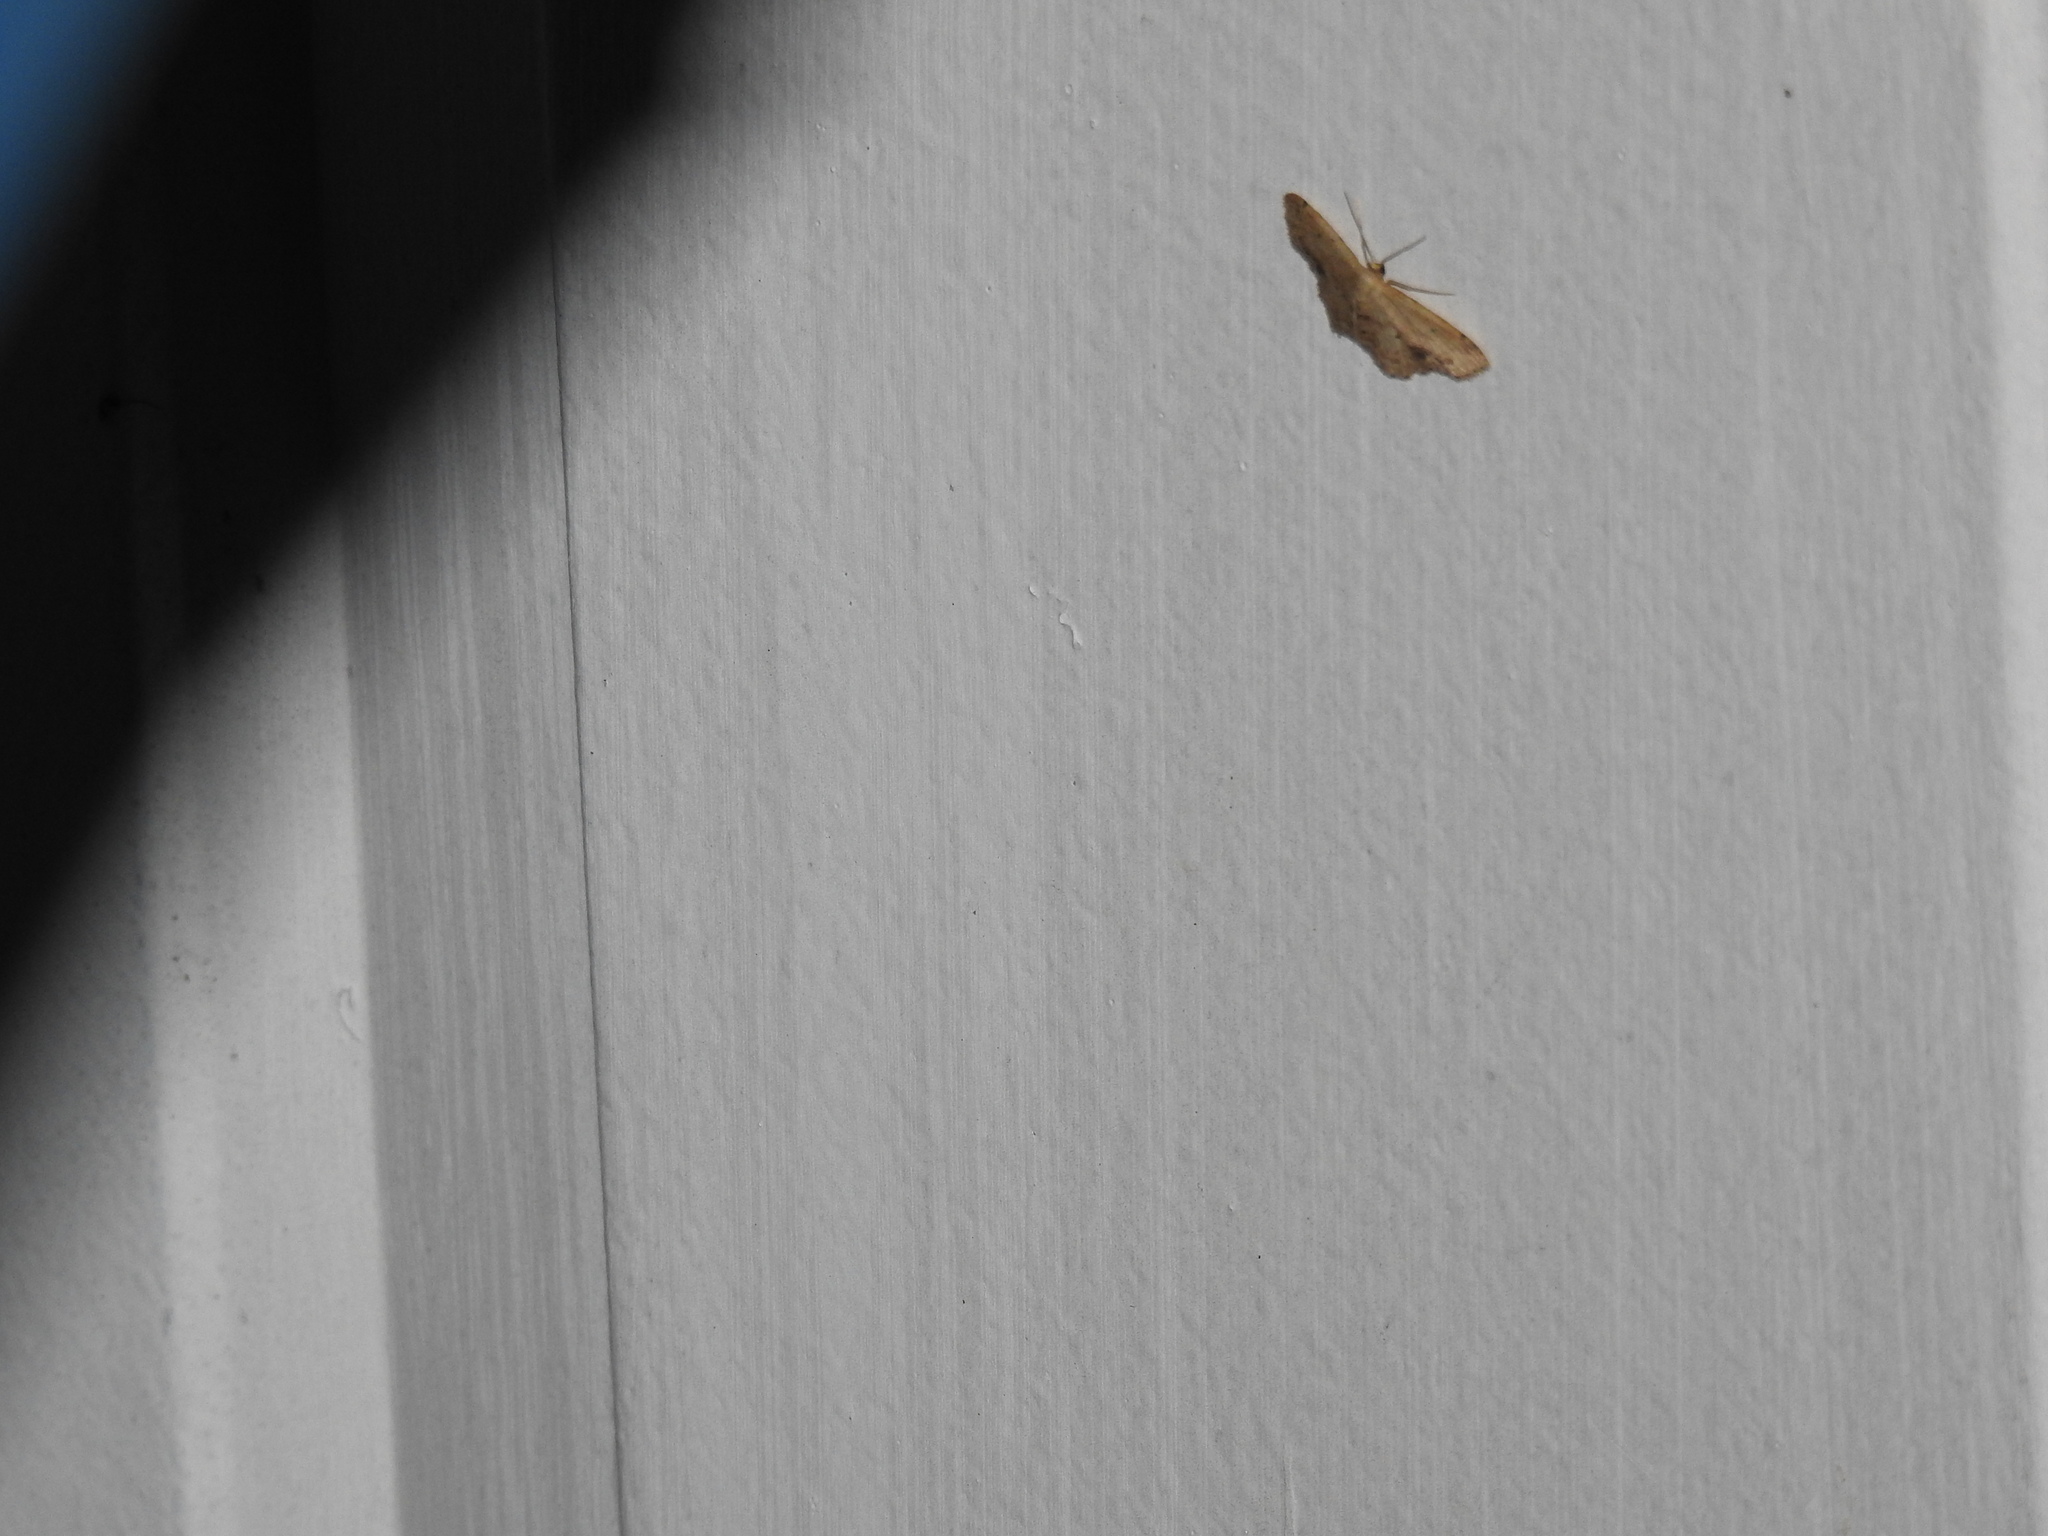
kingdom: Animalia
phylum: Arthropoda
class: Insecta
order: Lepidoptera
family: Geometridae
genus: Idaea
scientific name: Idaea dimidiata
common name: Single-dotted wave
